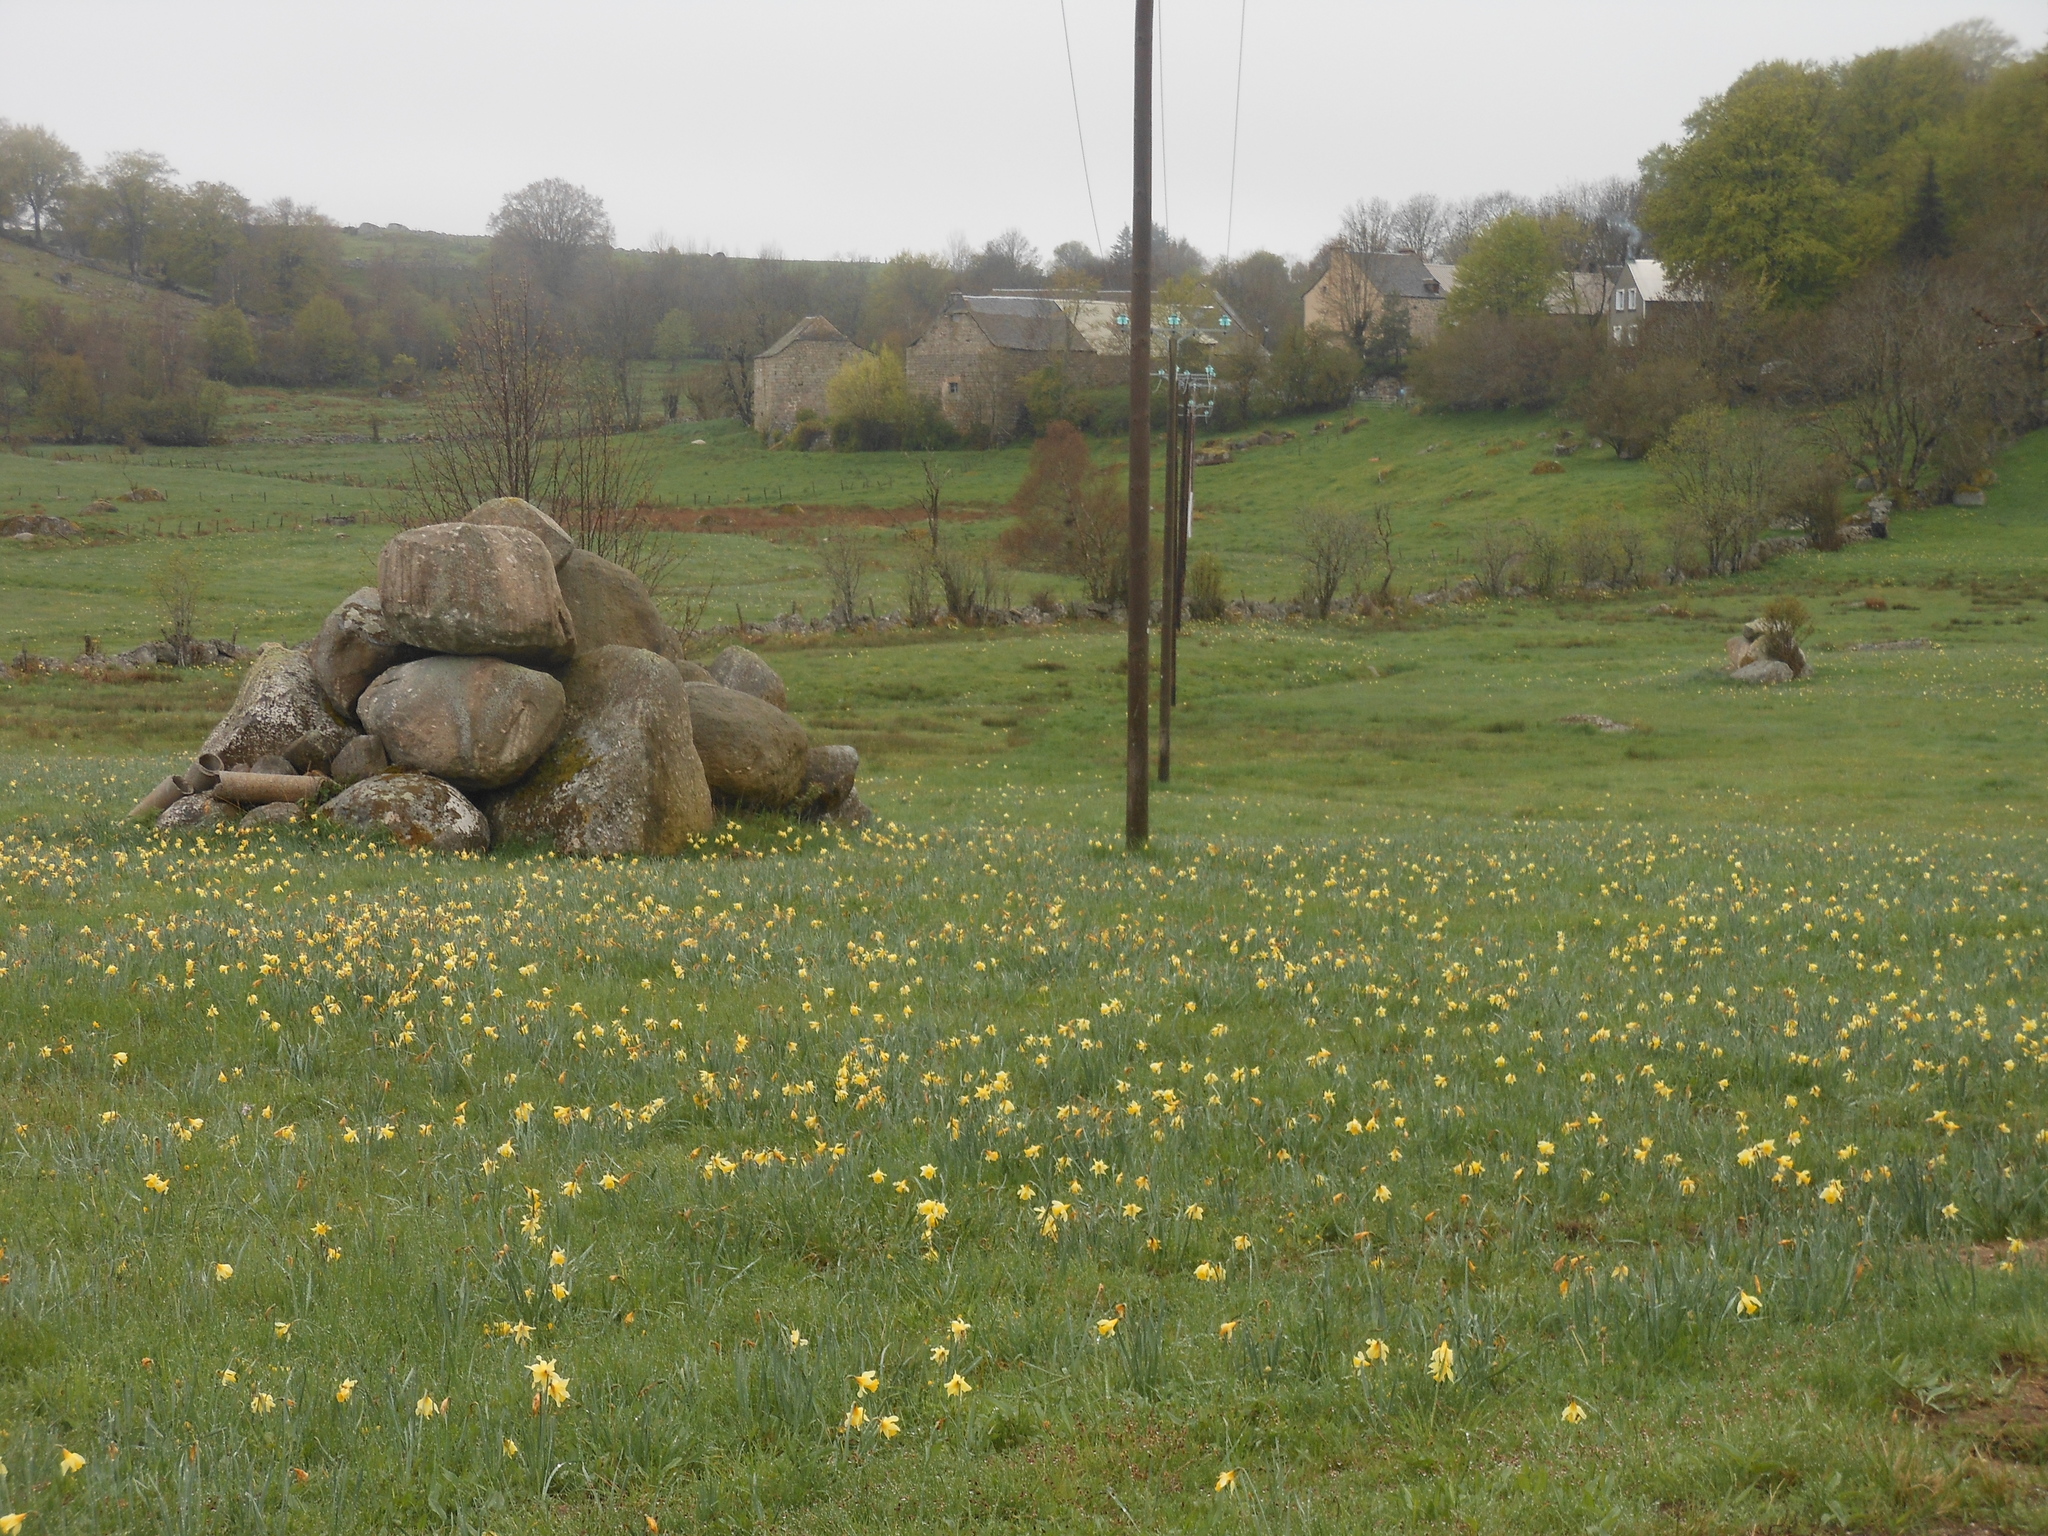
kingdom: Plantae
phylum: Tracheophyta
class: Liliopsida
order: Asparagales
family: Amaryllidaceae
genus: Narcissus
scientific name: Narcissus pseudonarcissus
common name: Daffodil
